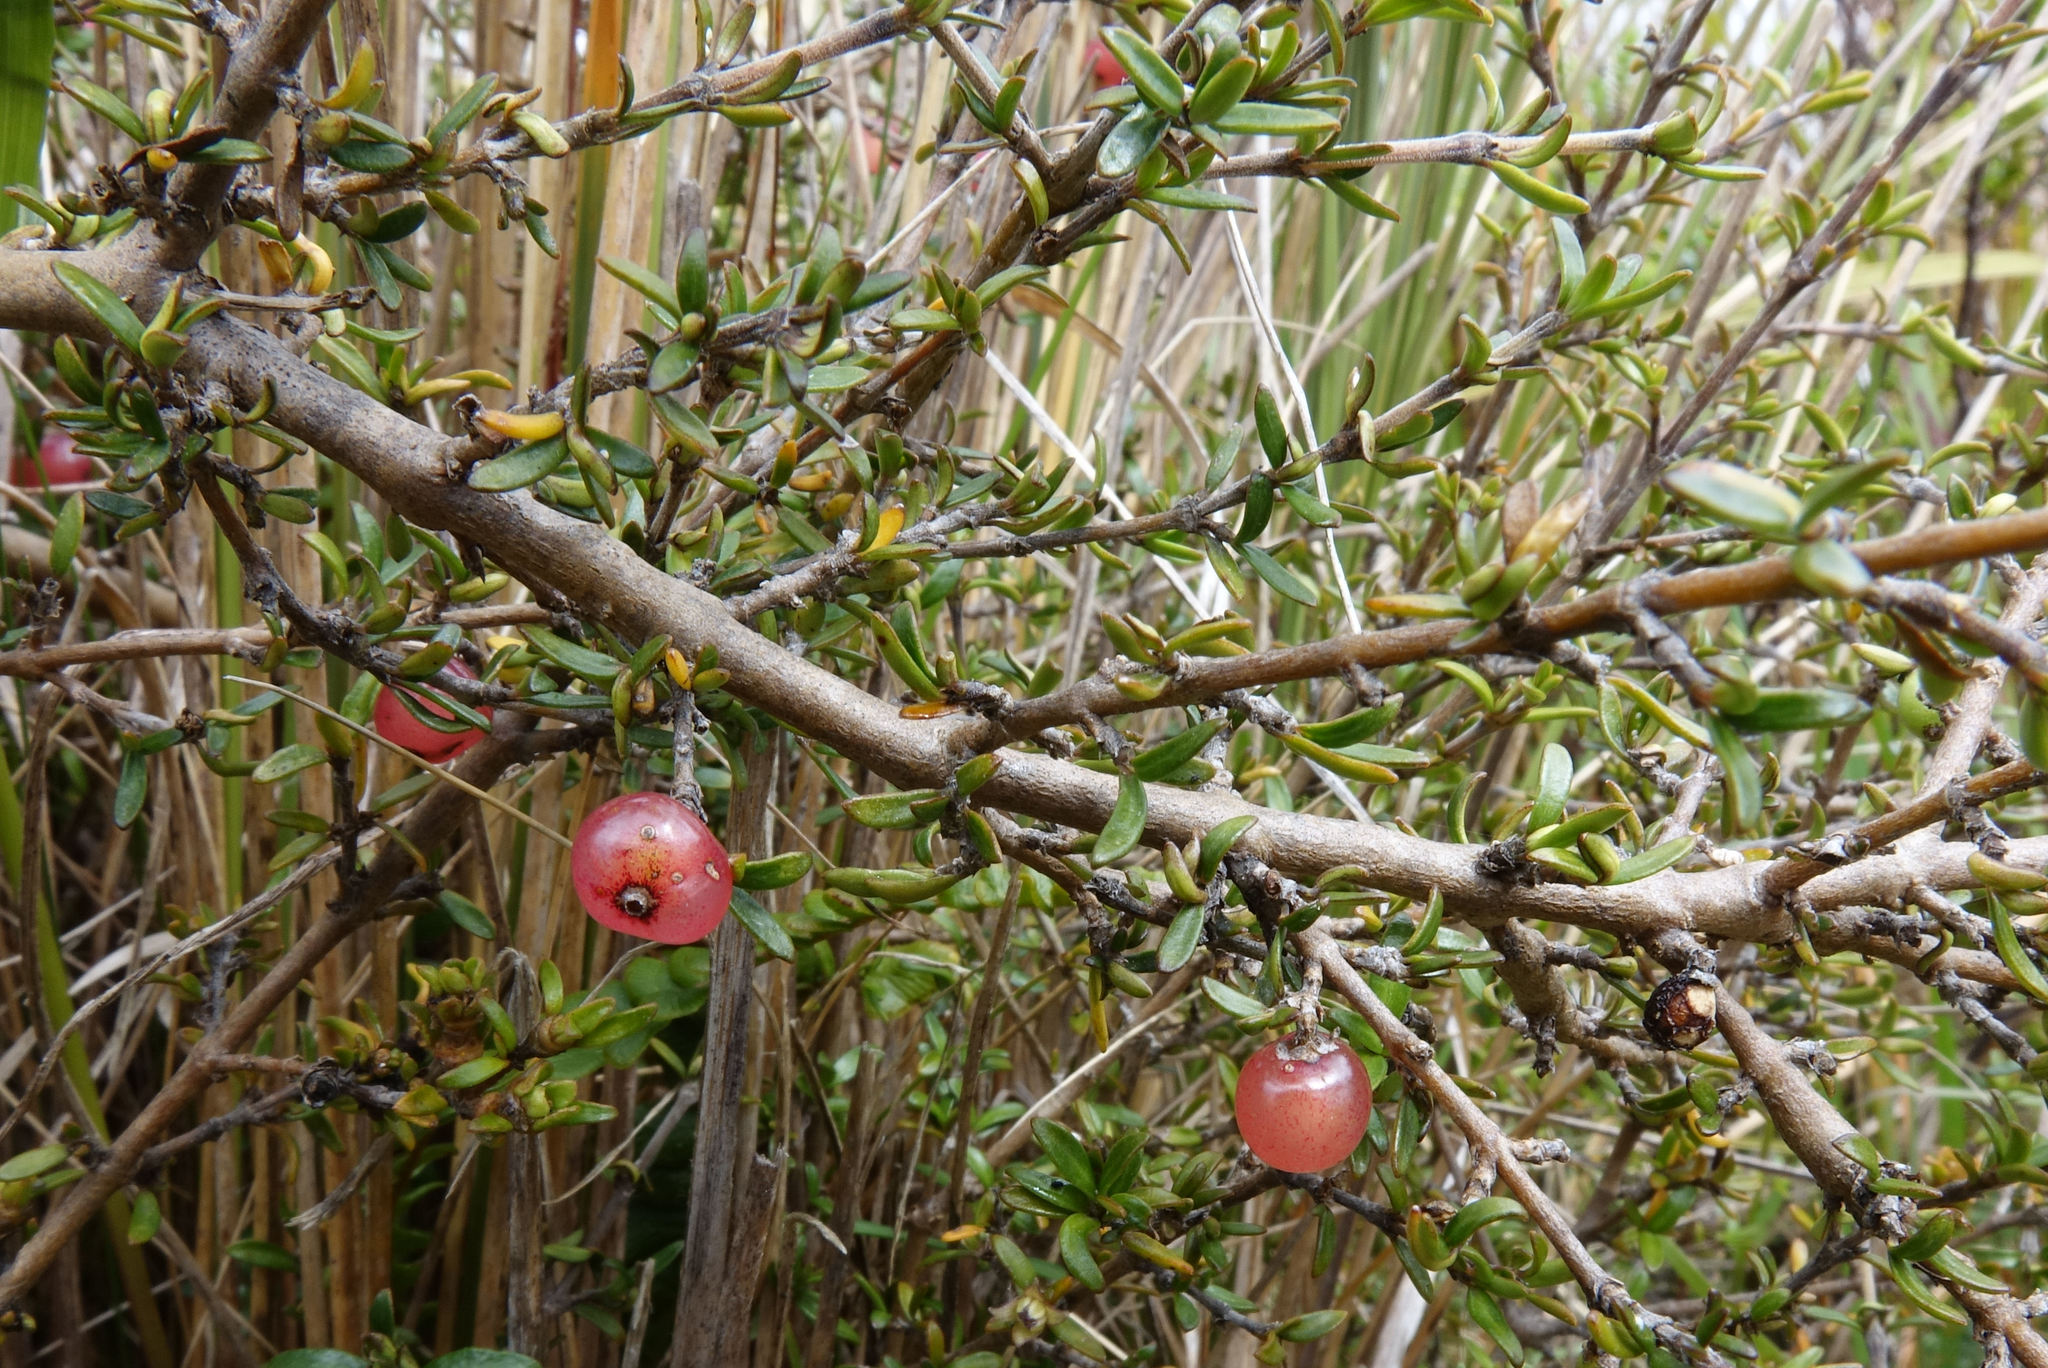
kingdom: Plantae
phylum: Tracheophyta
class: Magnoliopsida
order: Gentianales
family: Rubiaceae
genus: Coprosma
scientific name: Coprosma cheesemanii
